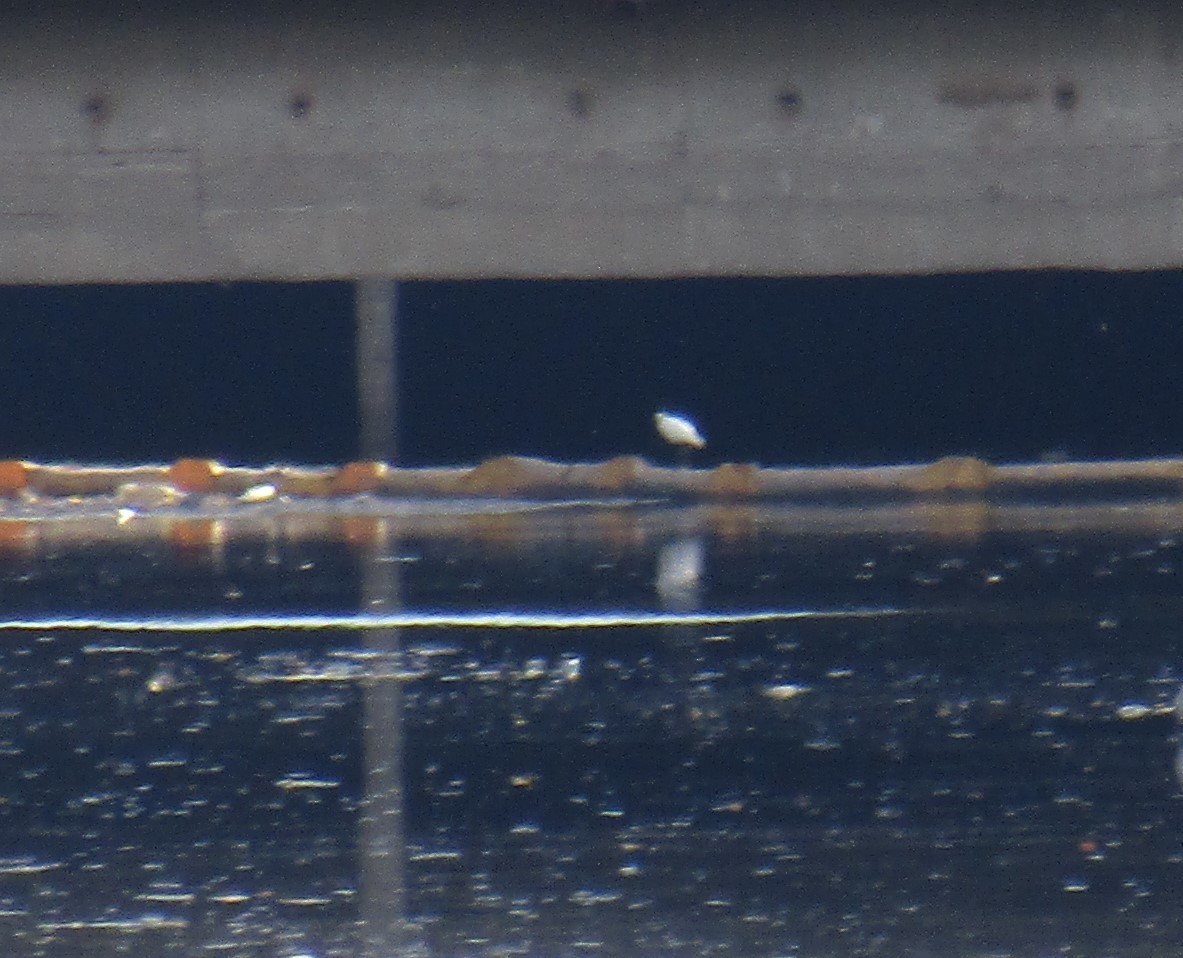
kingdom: Animalia
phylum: Chordata
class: Aves
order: Pelecaniformes
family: Ardeidae
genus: Egretta
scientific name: Egretta thula
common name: Snowy egret
